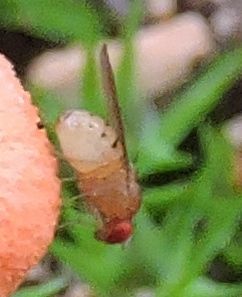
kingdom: Animalia
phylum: Arthropoda
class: Insecta
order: Diptera
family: Drosophilidae
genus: Drosophila
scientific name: Drosophila
